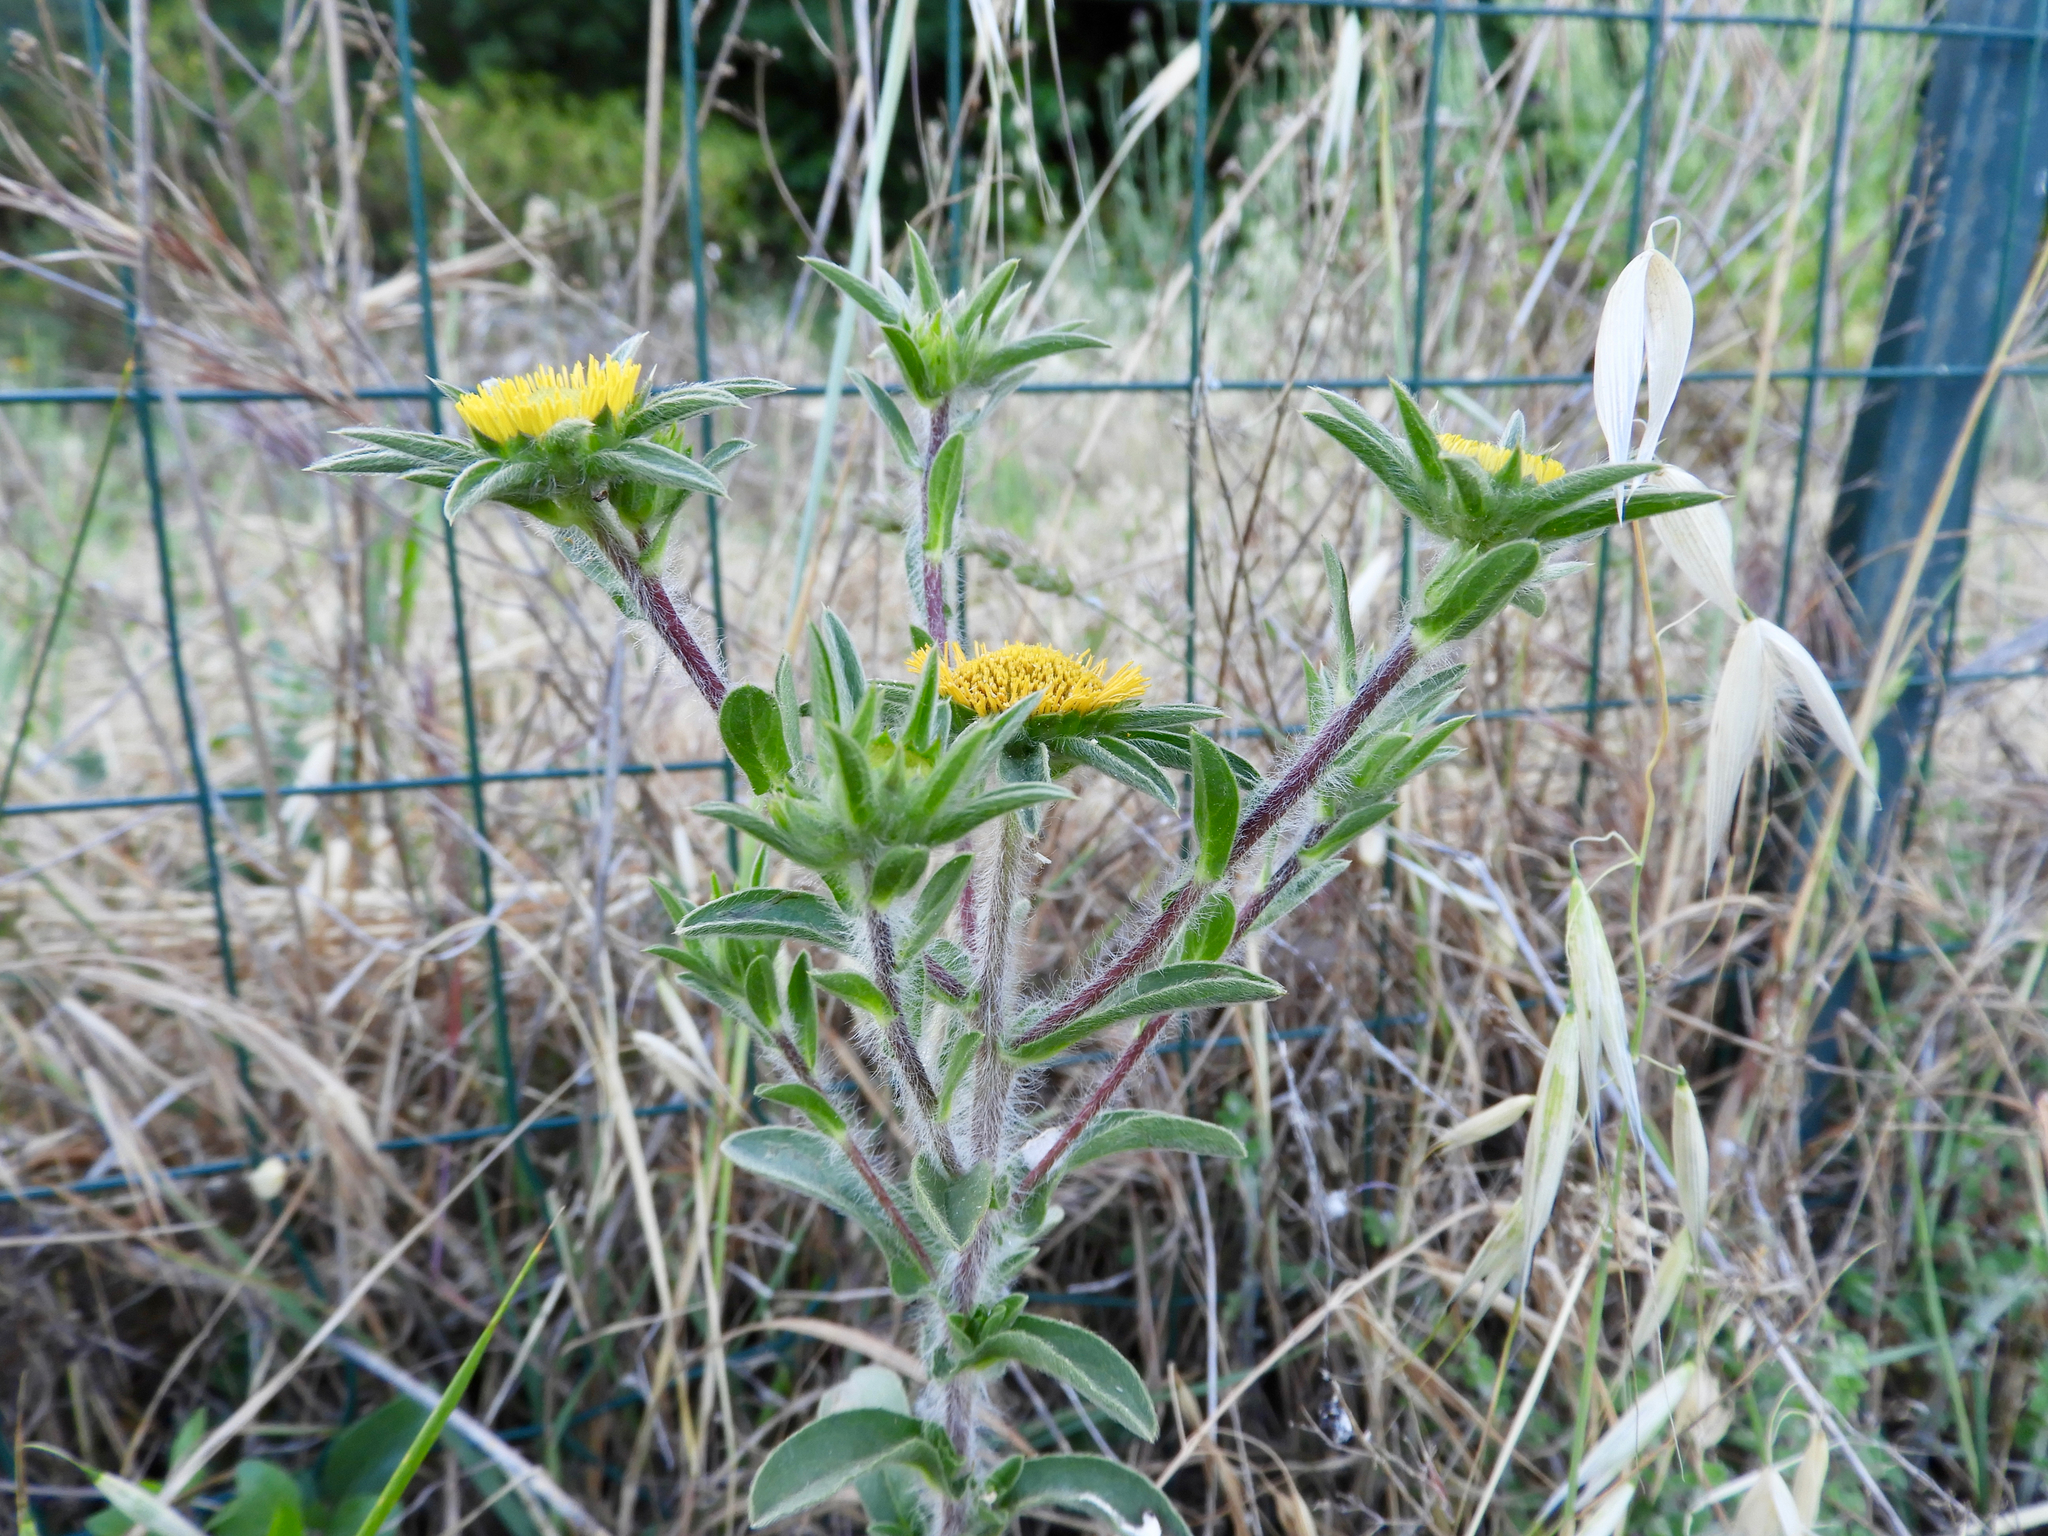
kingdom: Plantae
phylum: Tracheophyta
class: Magnoliopsida
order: Asterales
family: Asteraceae
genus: Pallenis
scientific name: Pallenis spinosa
